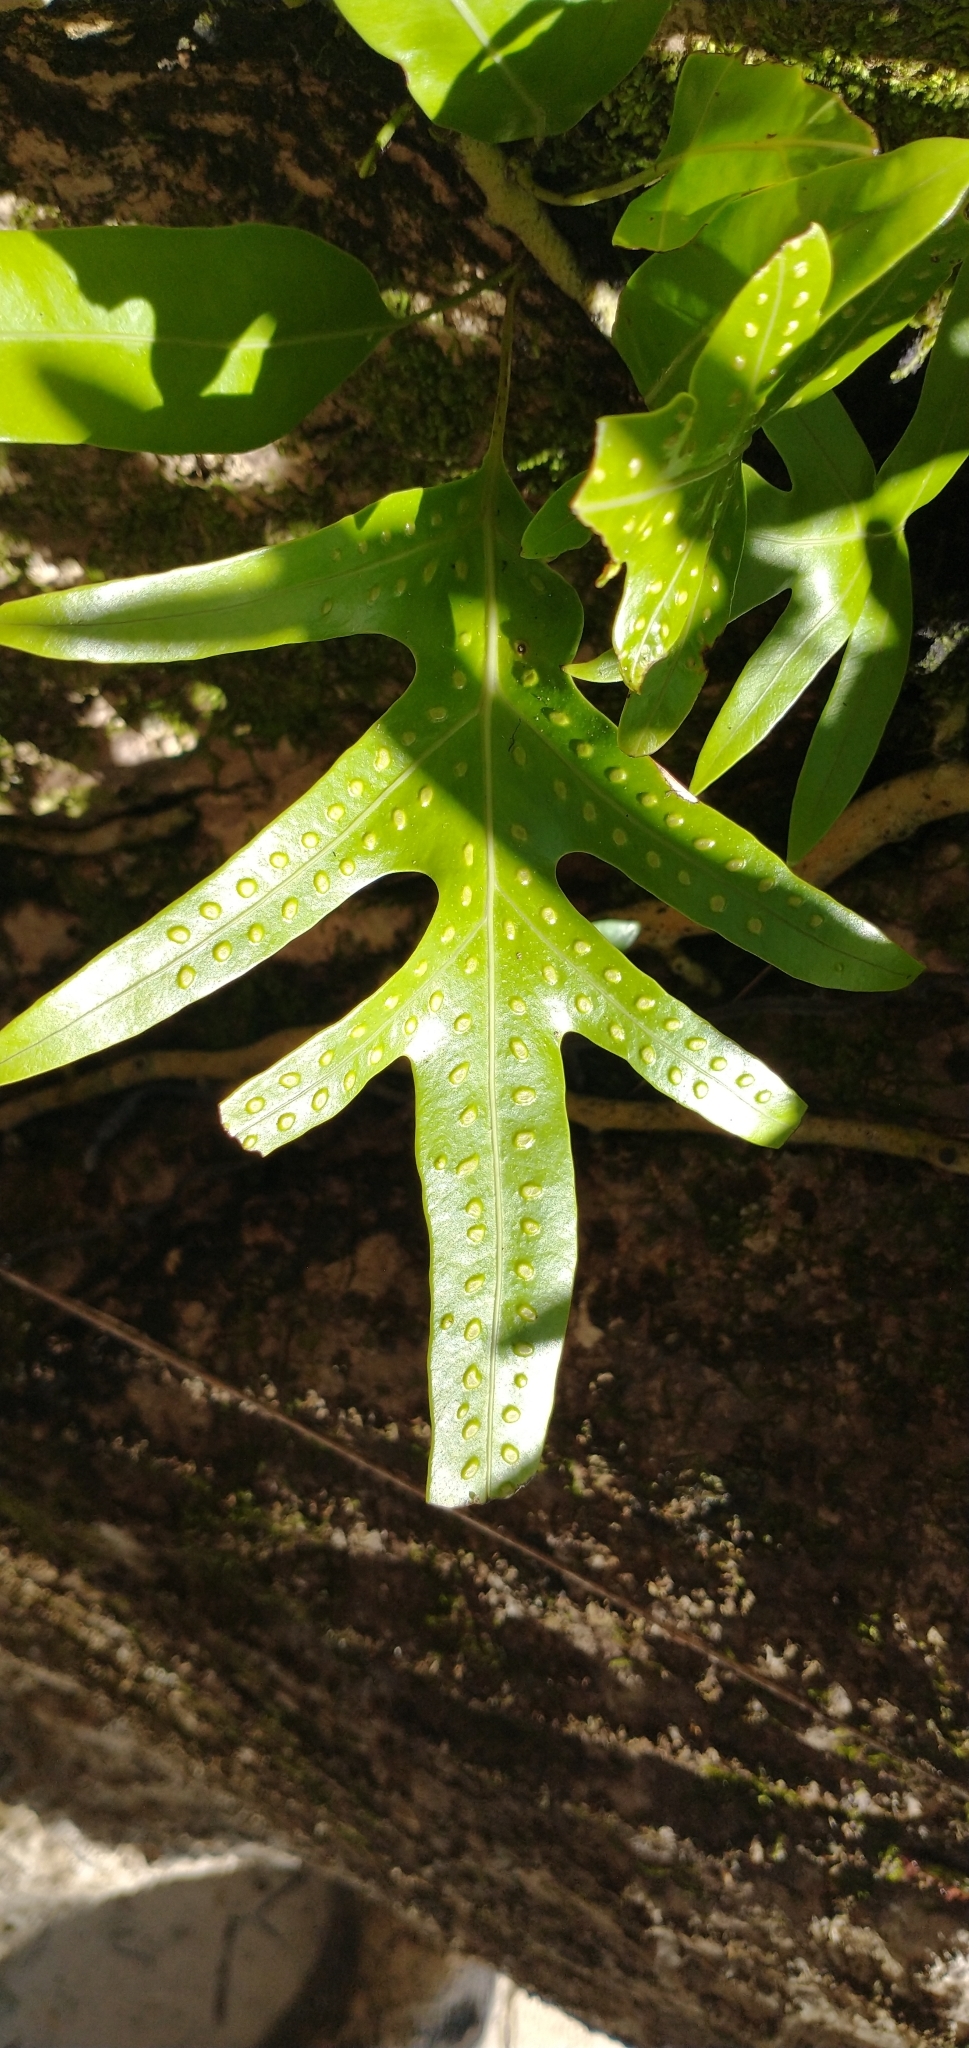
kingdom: Plantae
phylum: Tracheophyta
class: Polypodiopsida
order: Polypodiales
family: Polypodiaceae
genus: Microsorum
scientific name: Microsorum scolopendria
